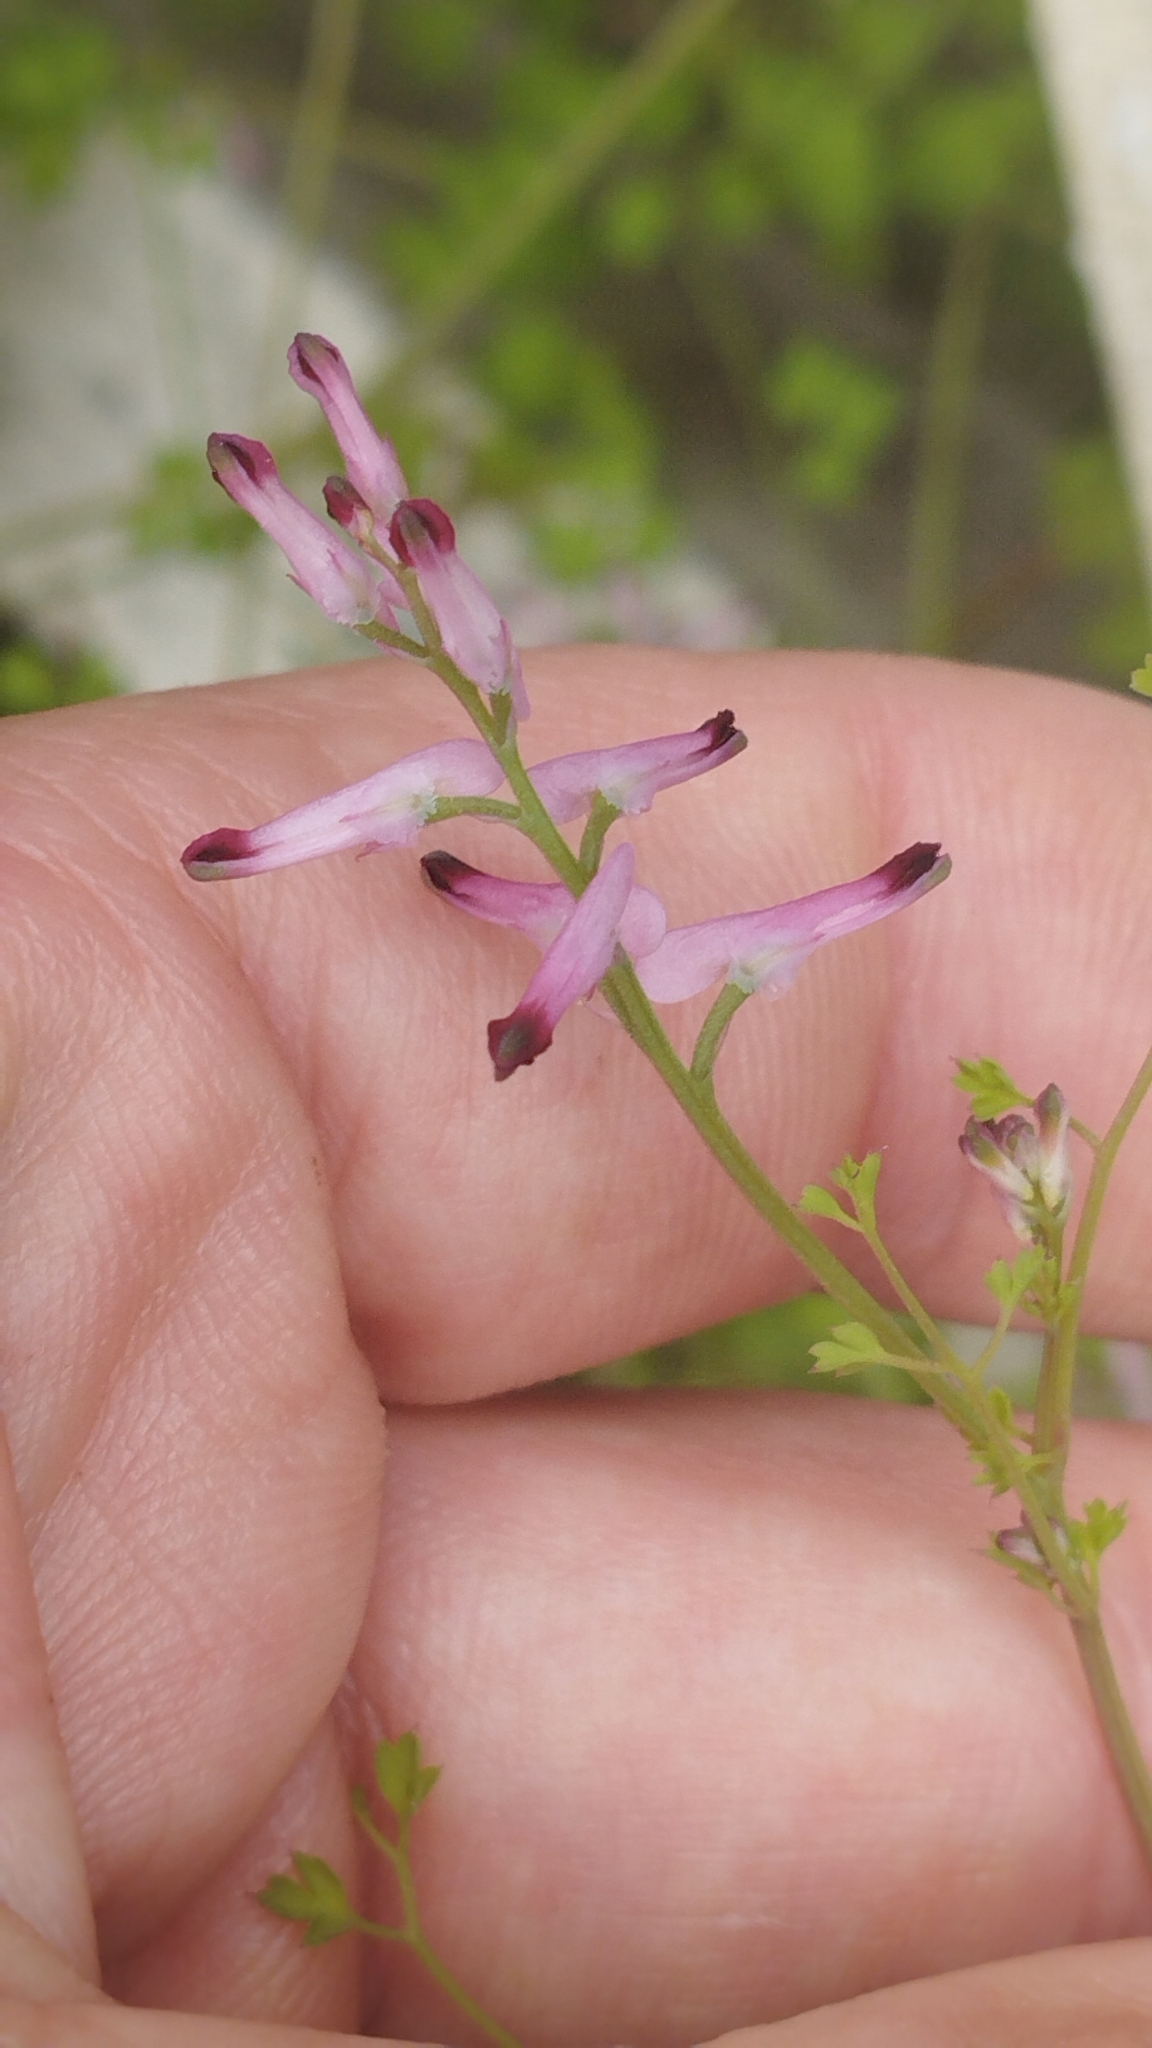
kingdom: Plantae
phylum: Tracheophyta
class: Magnoliopsida
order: Ranunculales
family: Papaveraceae
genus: Fumaria
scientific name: Fumaria muralis
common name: Common ramping-fumitory
